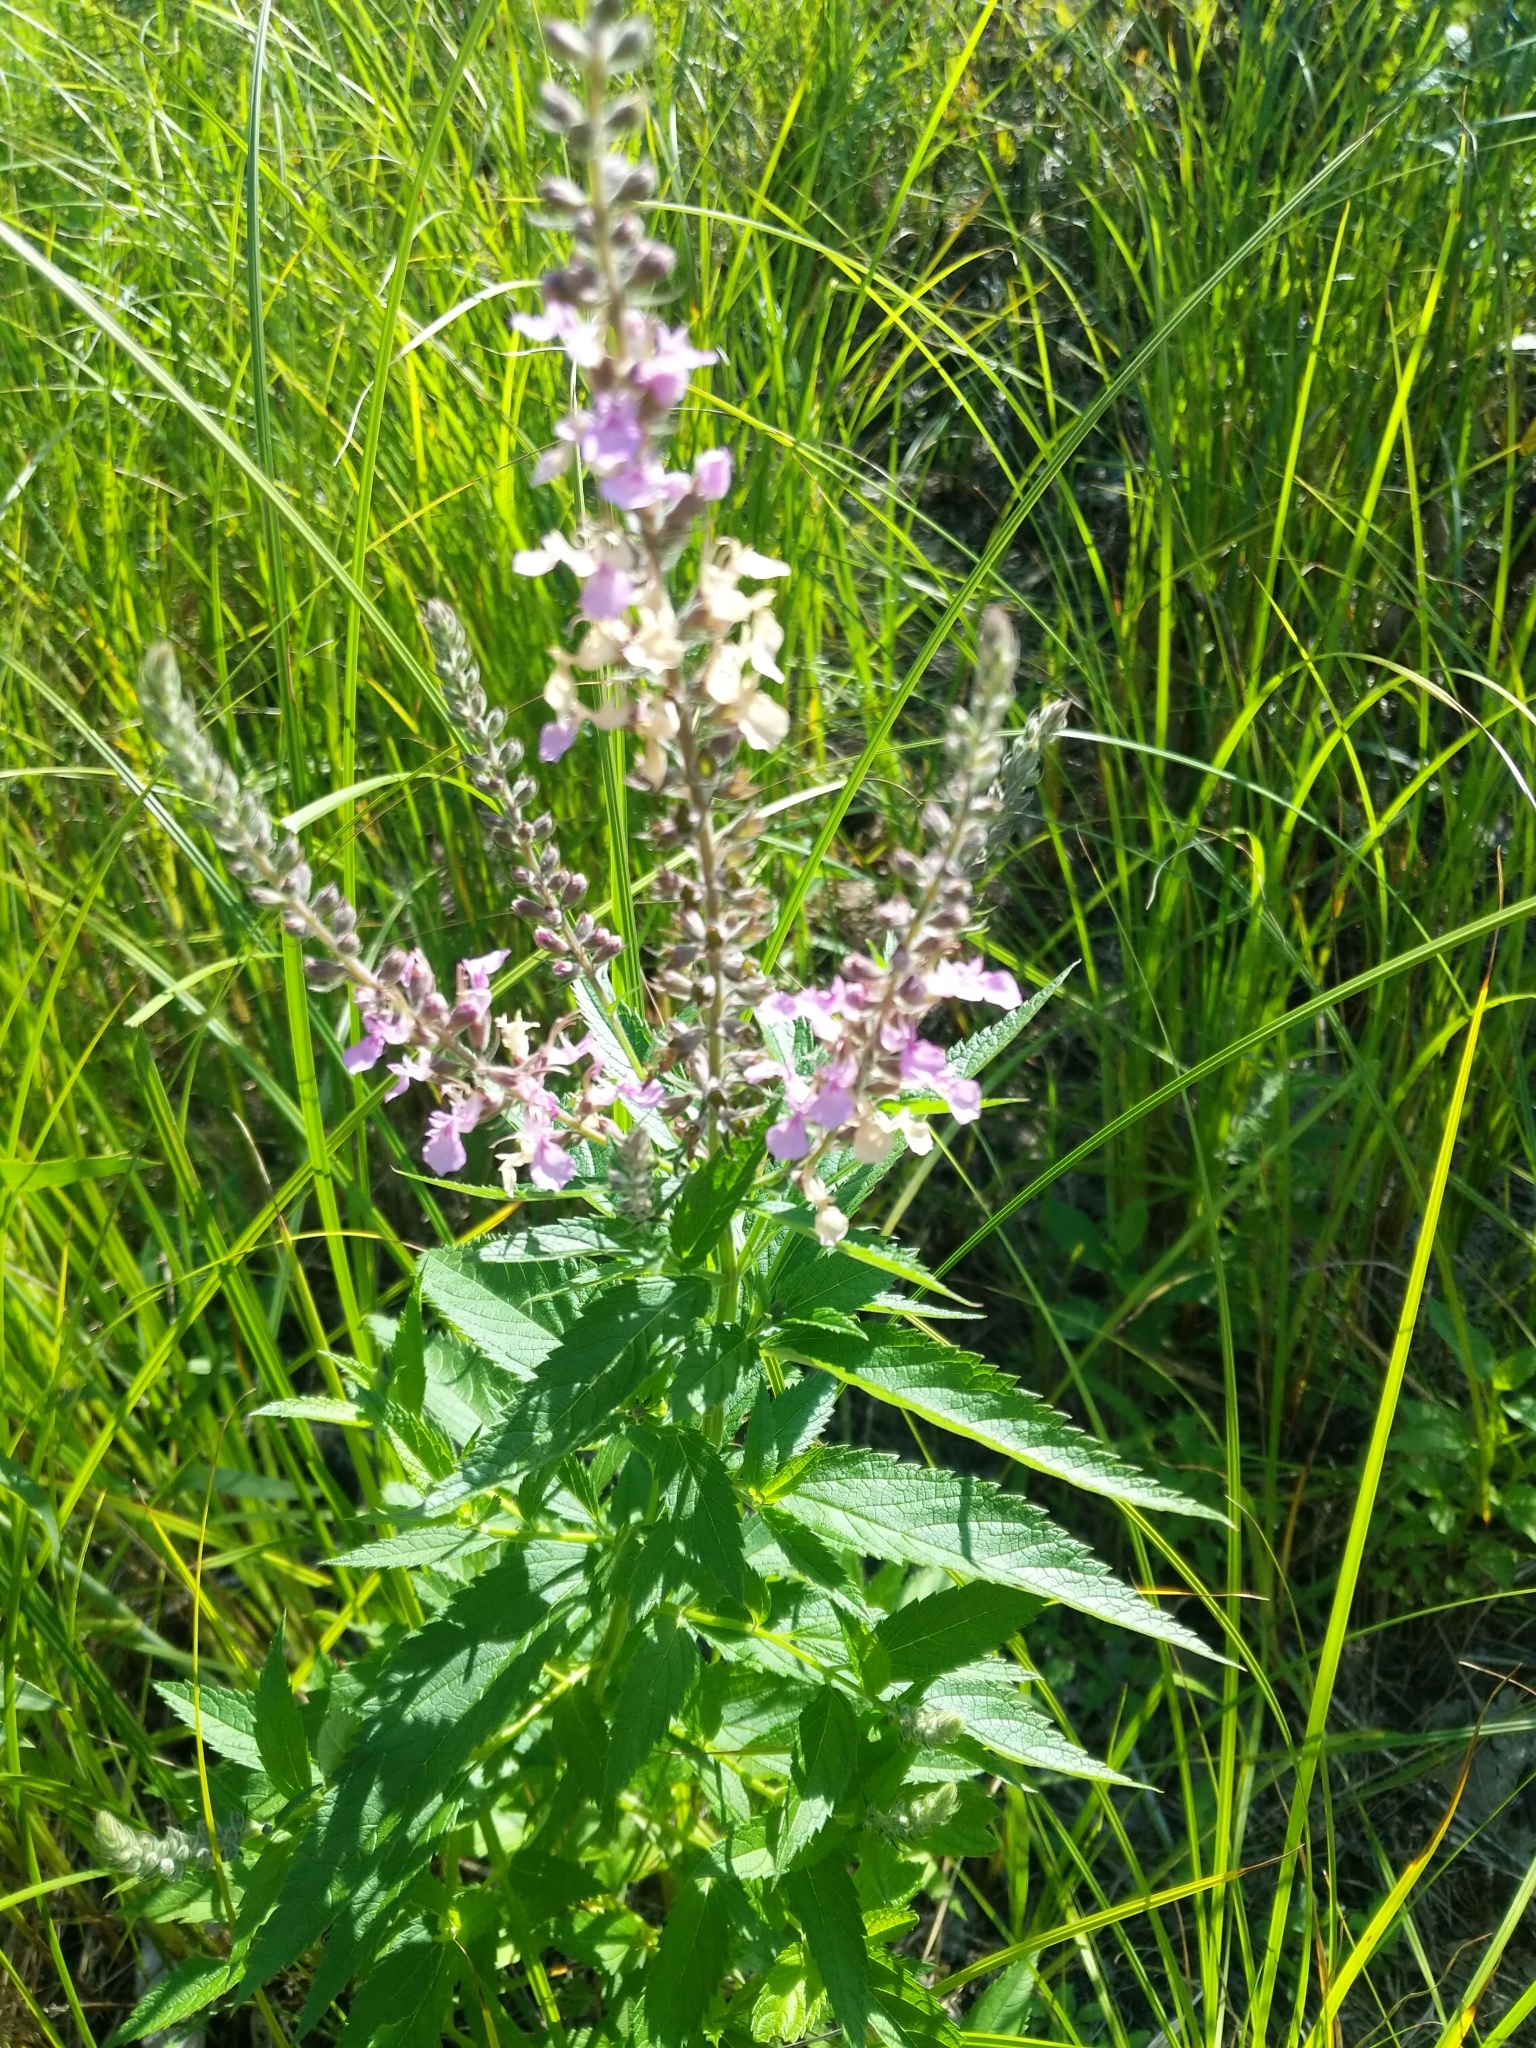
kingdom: Plantae
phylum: Tracheophyta
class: Magnoliopsida
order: Lamiales
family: Lamiaceae
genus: Teucrium
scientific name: Teucrium canadense
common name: American germander
